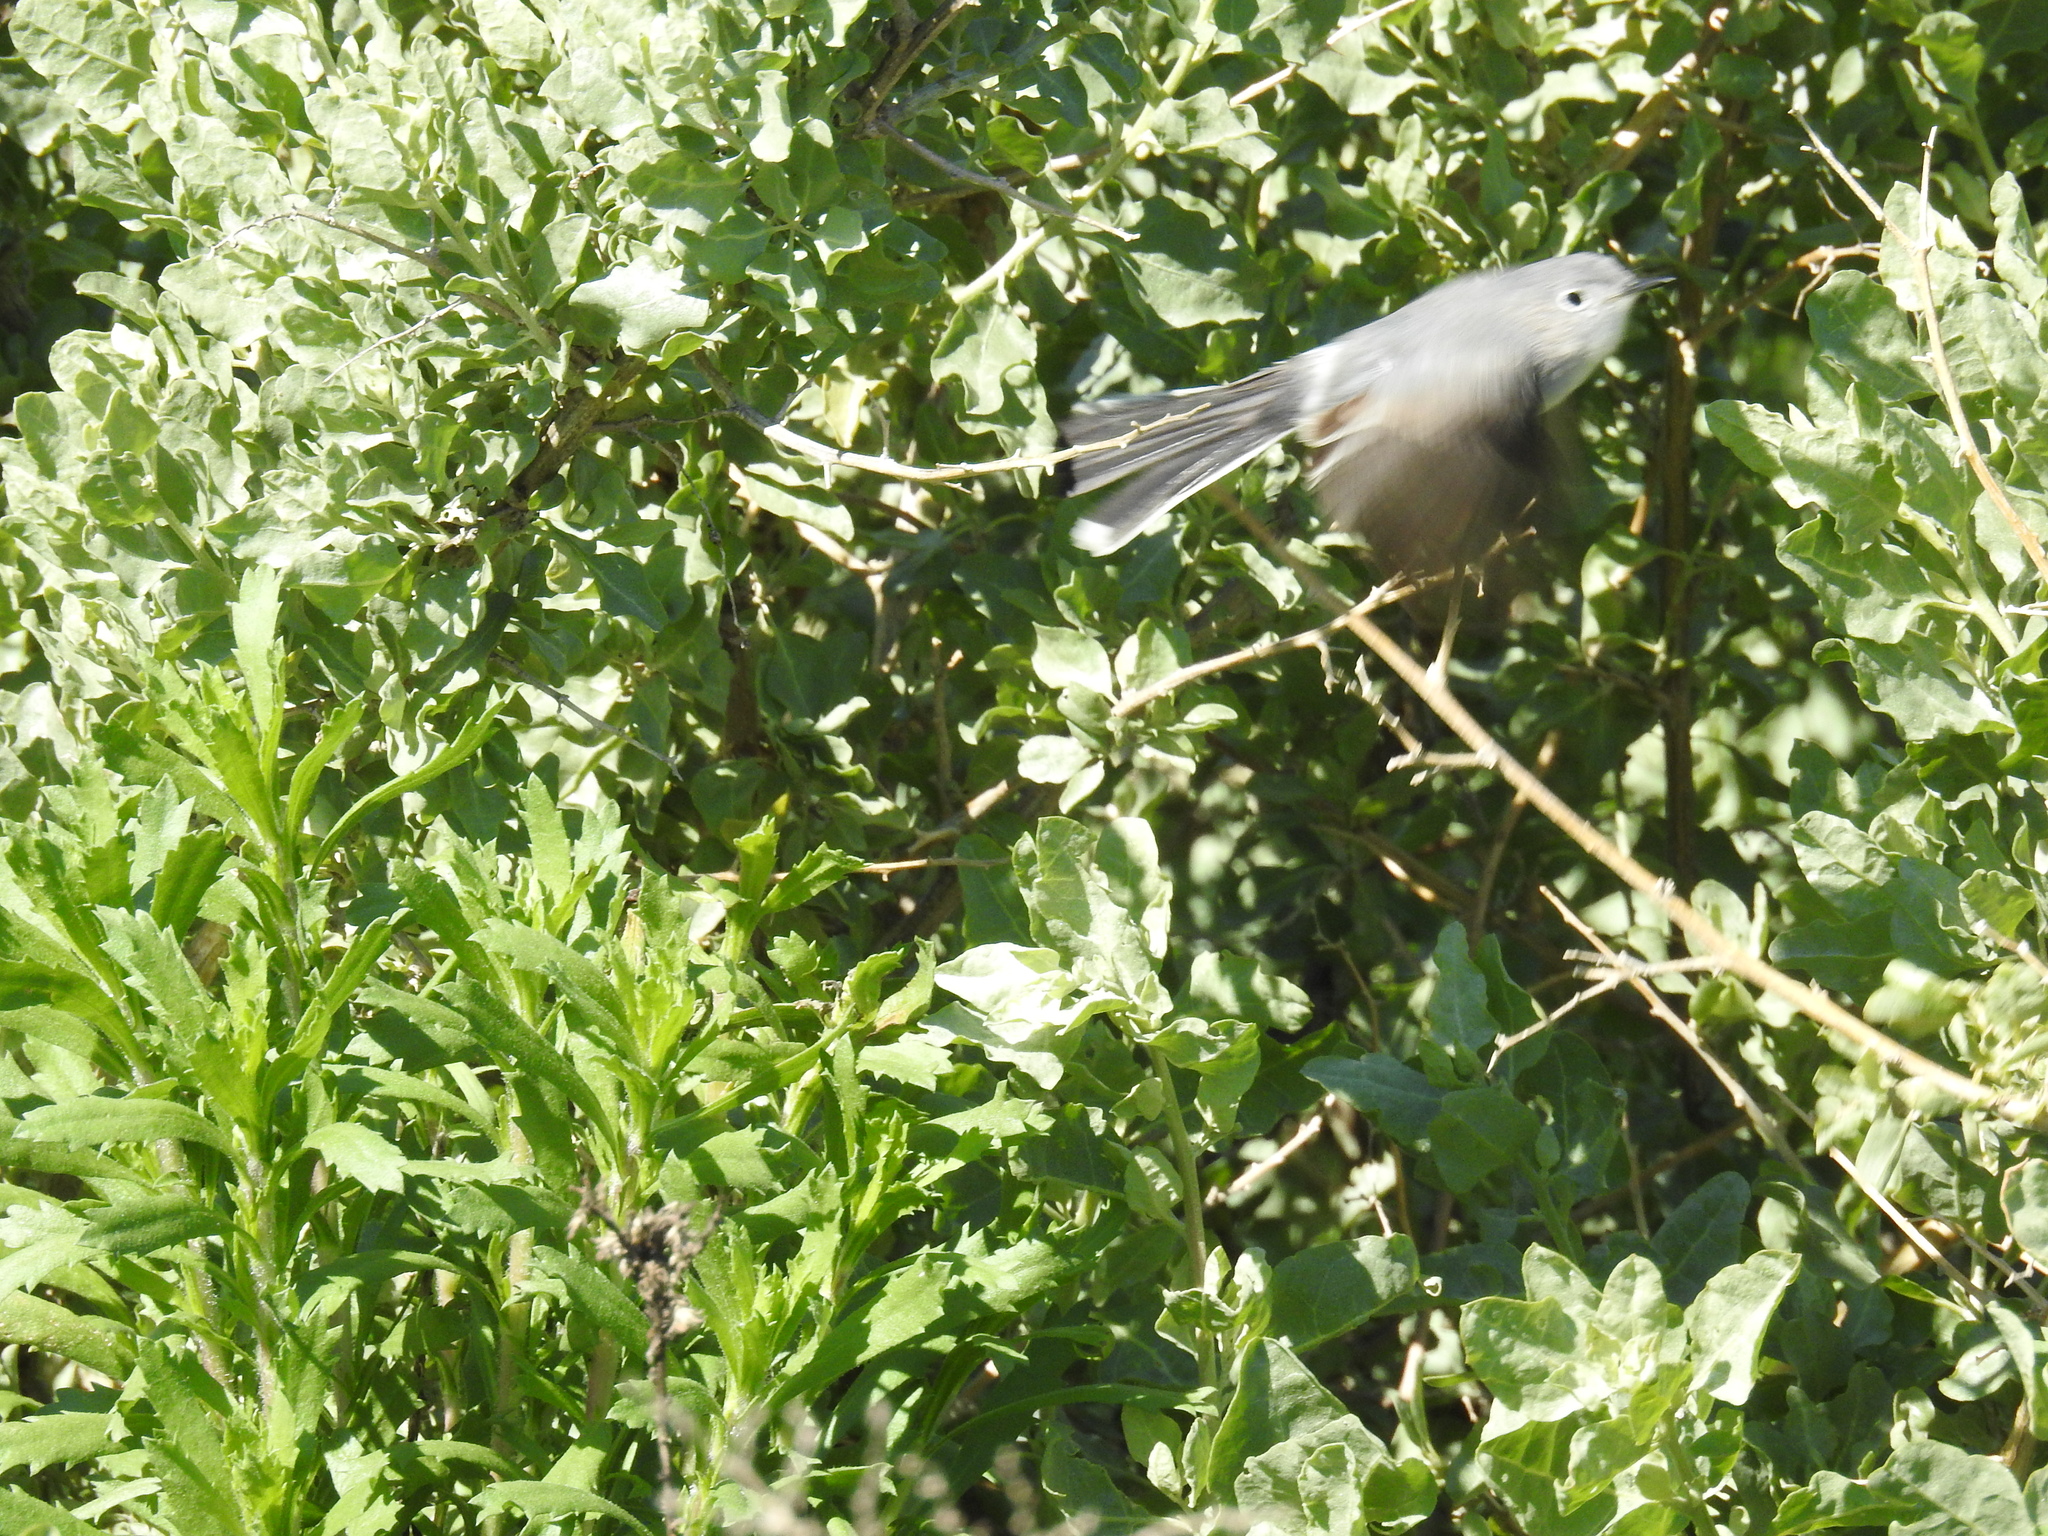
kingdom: Animalia
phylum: Chordata
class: Aves
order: Passeriformes
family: Polioptilidae
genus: Polioptila
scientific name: Polioptila caerulea
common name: Blue-gray gnatcatcher
